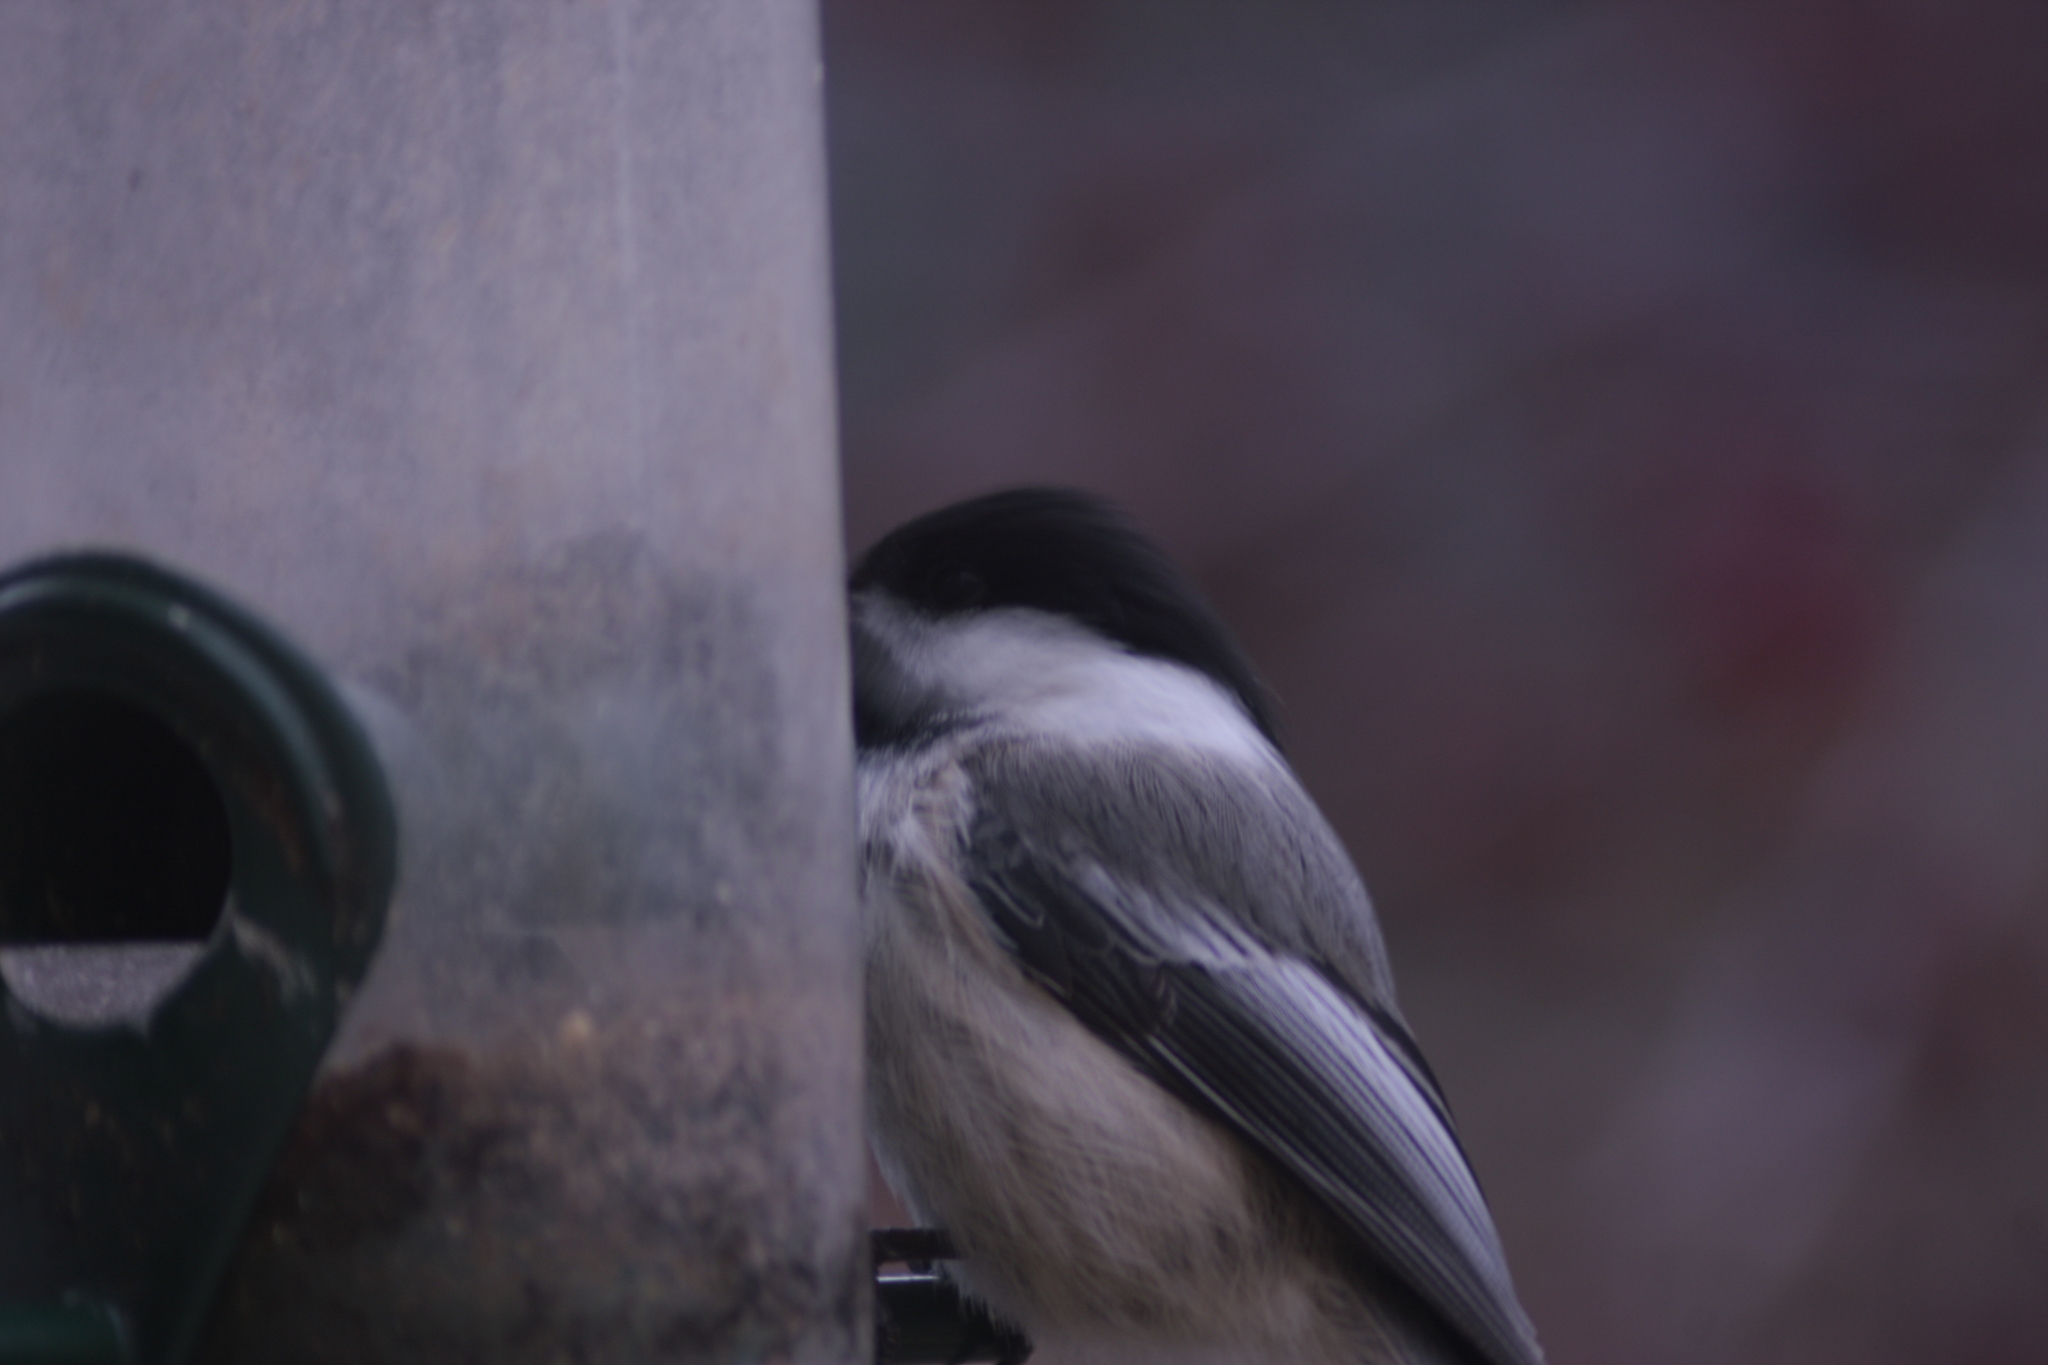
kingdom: Animalia
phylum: Chordata
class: Aves
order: Passeriformes
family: Paridae
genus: Poecile
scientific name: Poecile atricapillus
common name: Black-capped chickadee
